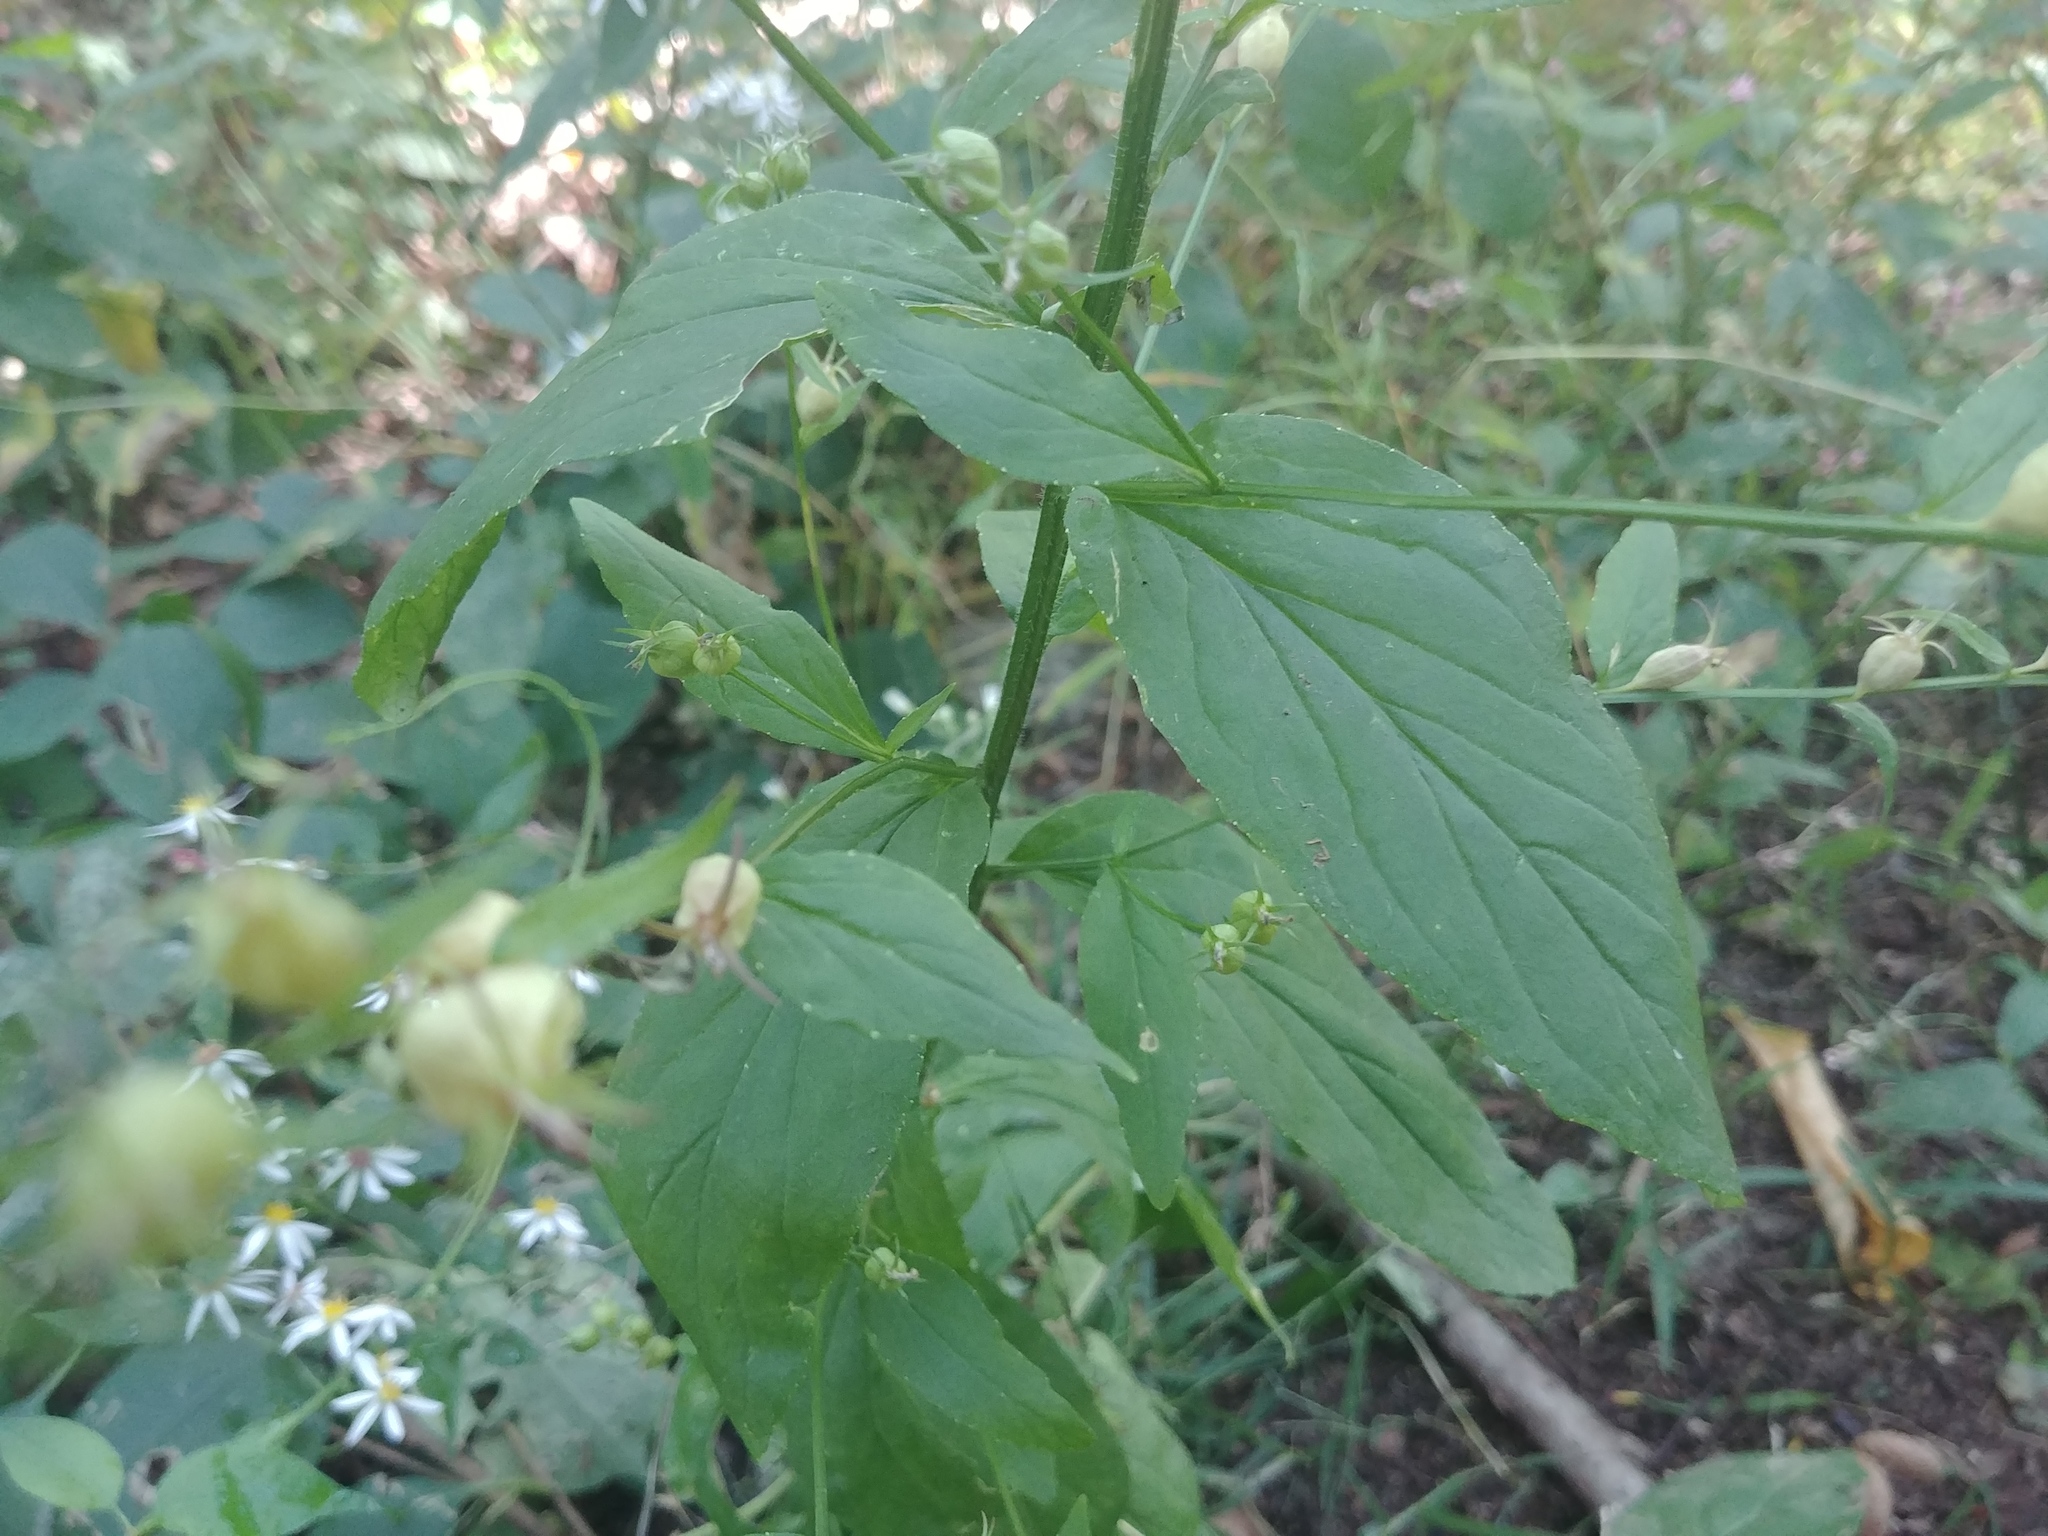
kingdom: Plantae
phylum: Tracheophyta
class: Magnoliopsida
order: Asterales
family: Campanulaceae
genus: Lobelia
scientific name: Lobelia inflata
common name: Indian tobacco
